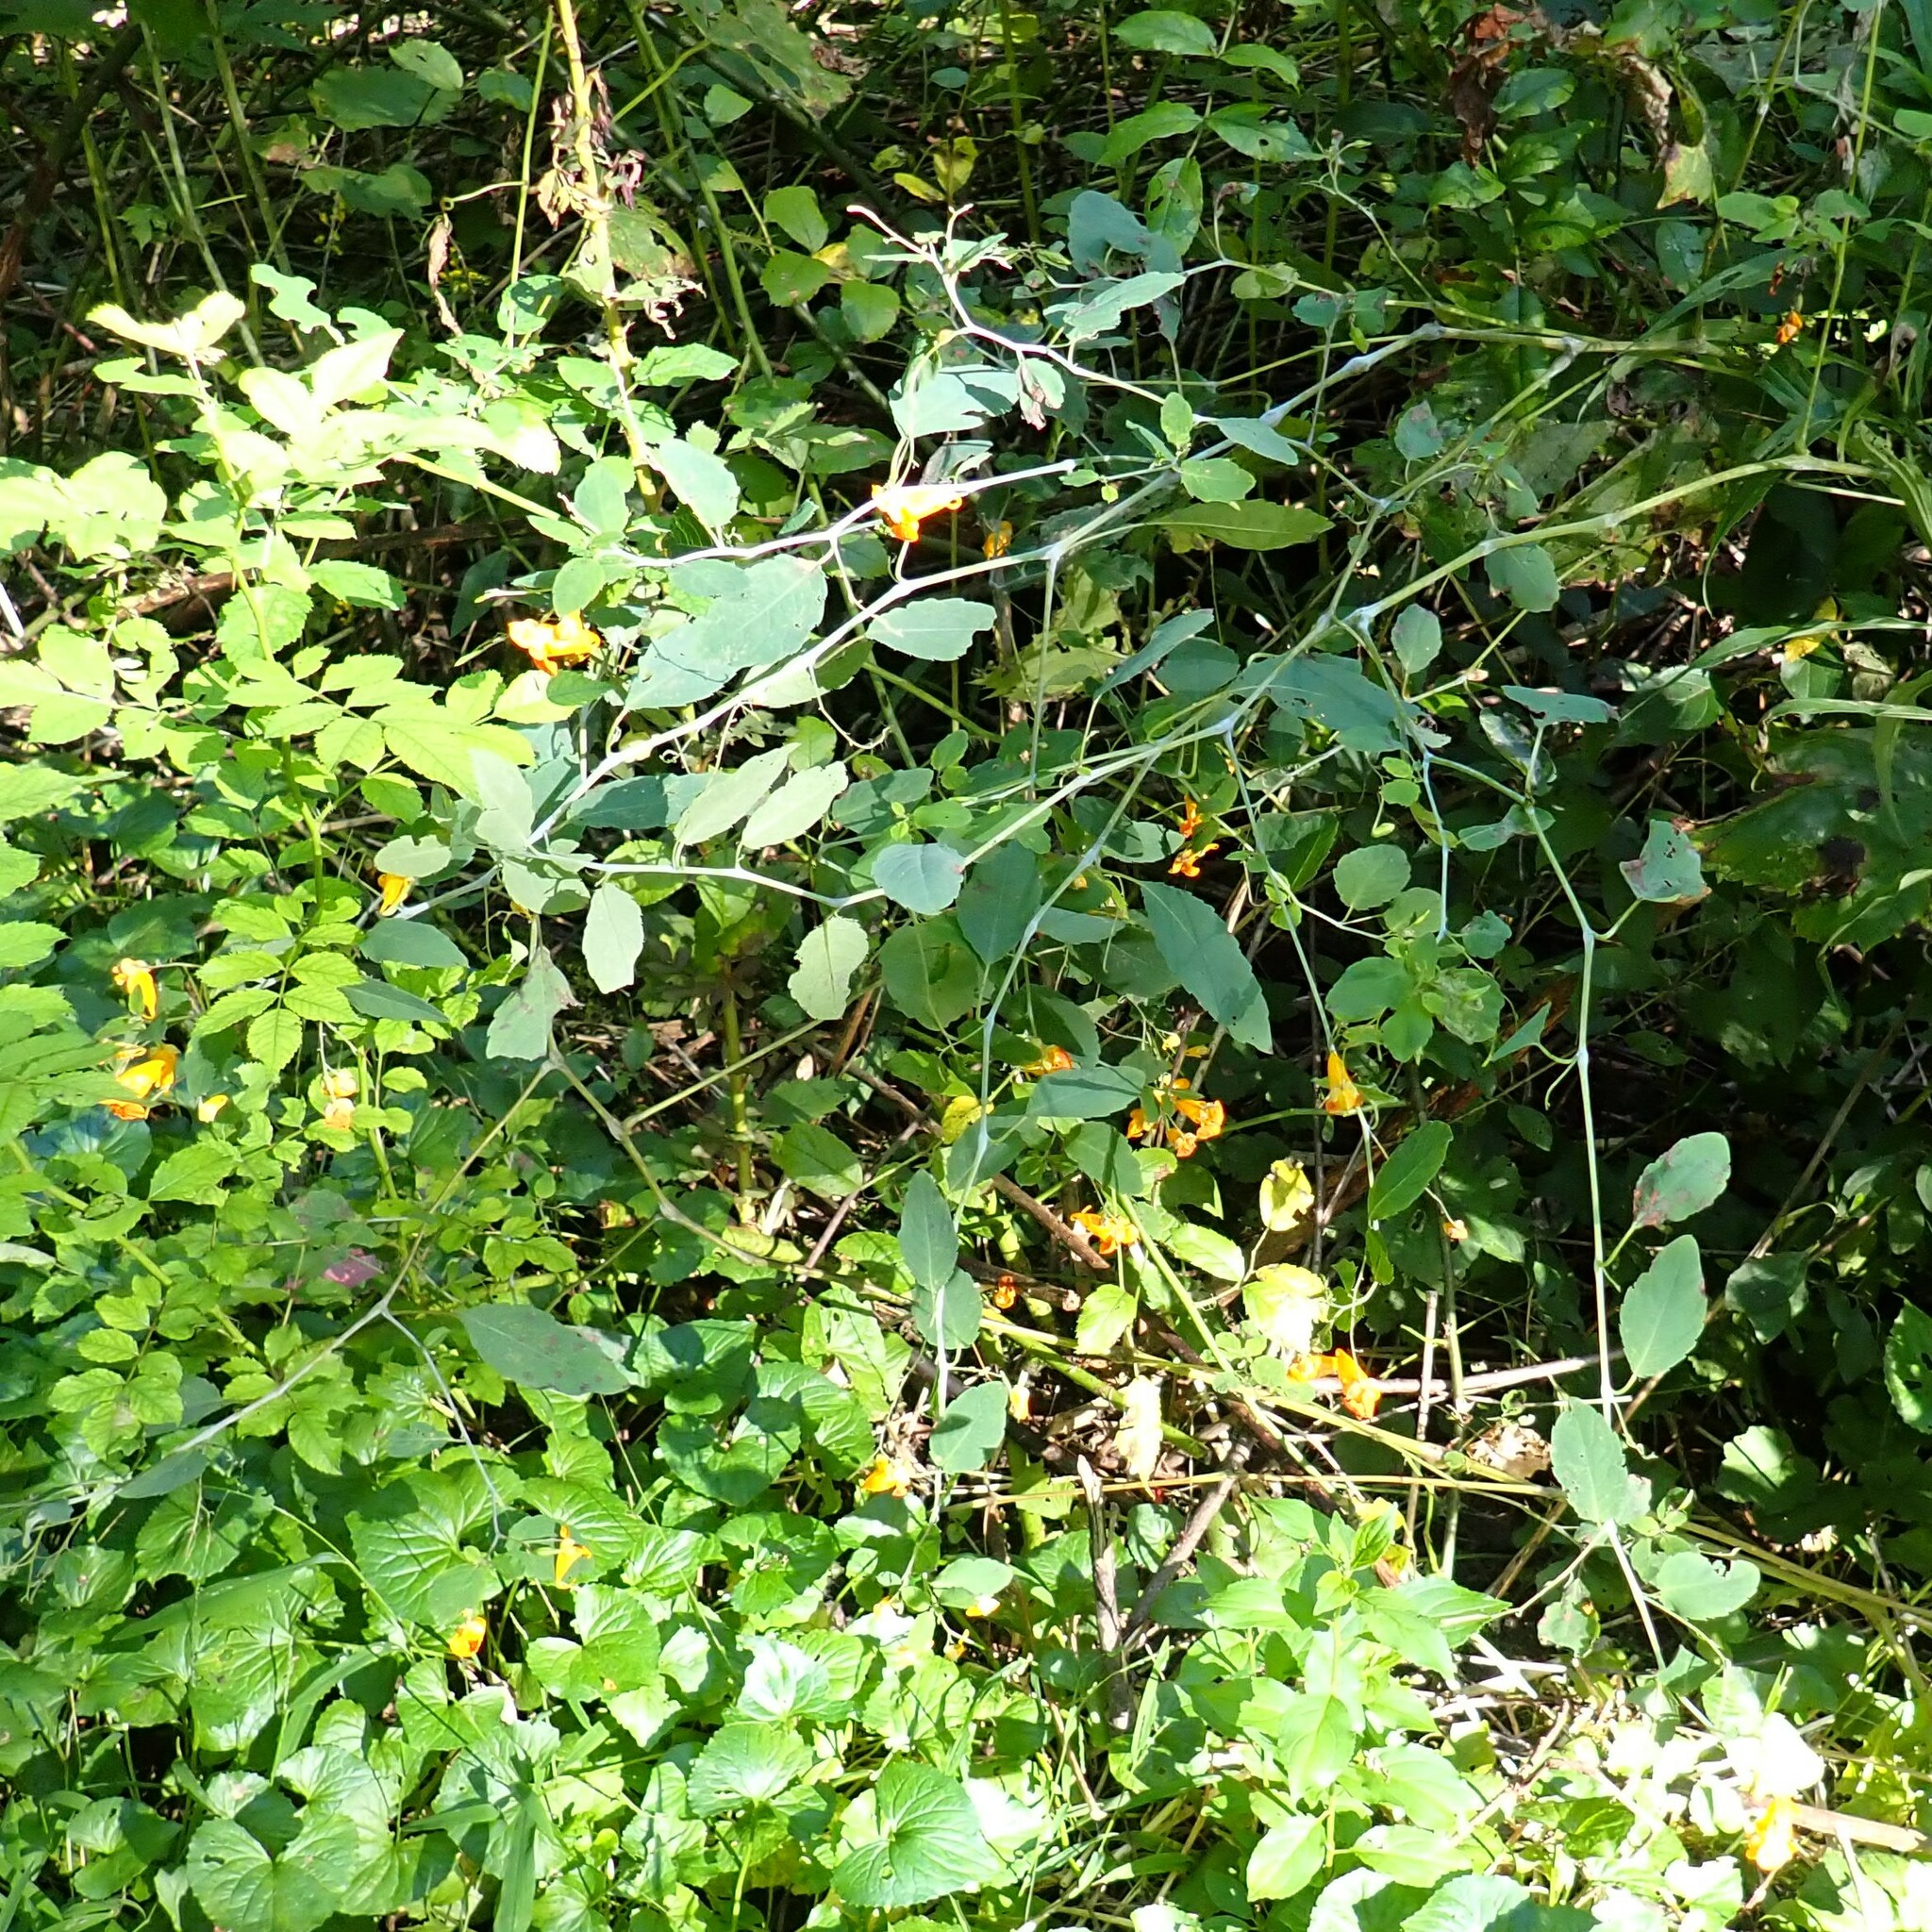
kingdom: Plantae
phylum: Tracheophyta
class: Magnoliopsida
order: Ericales
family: Balsaminaceae
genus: Impatiens
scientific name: Impatiens capensis
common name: Orange balsam
